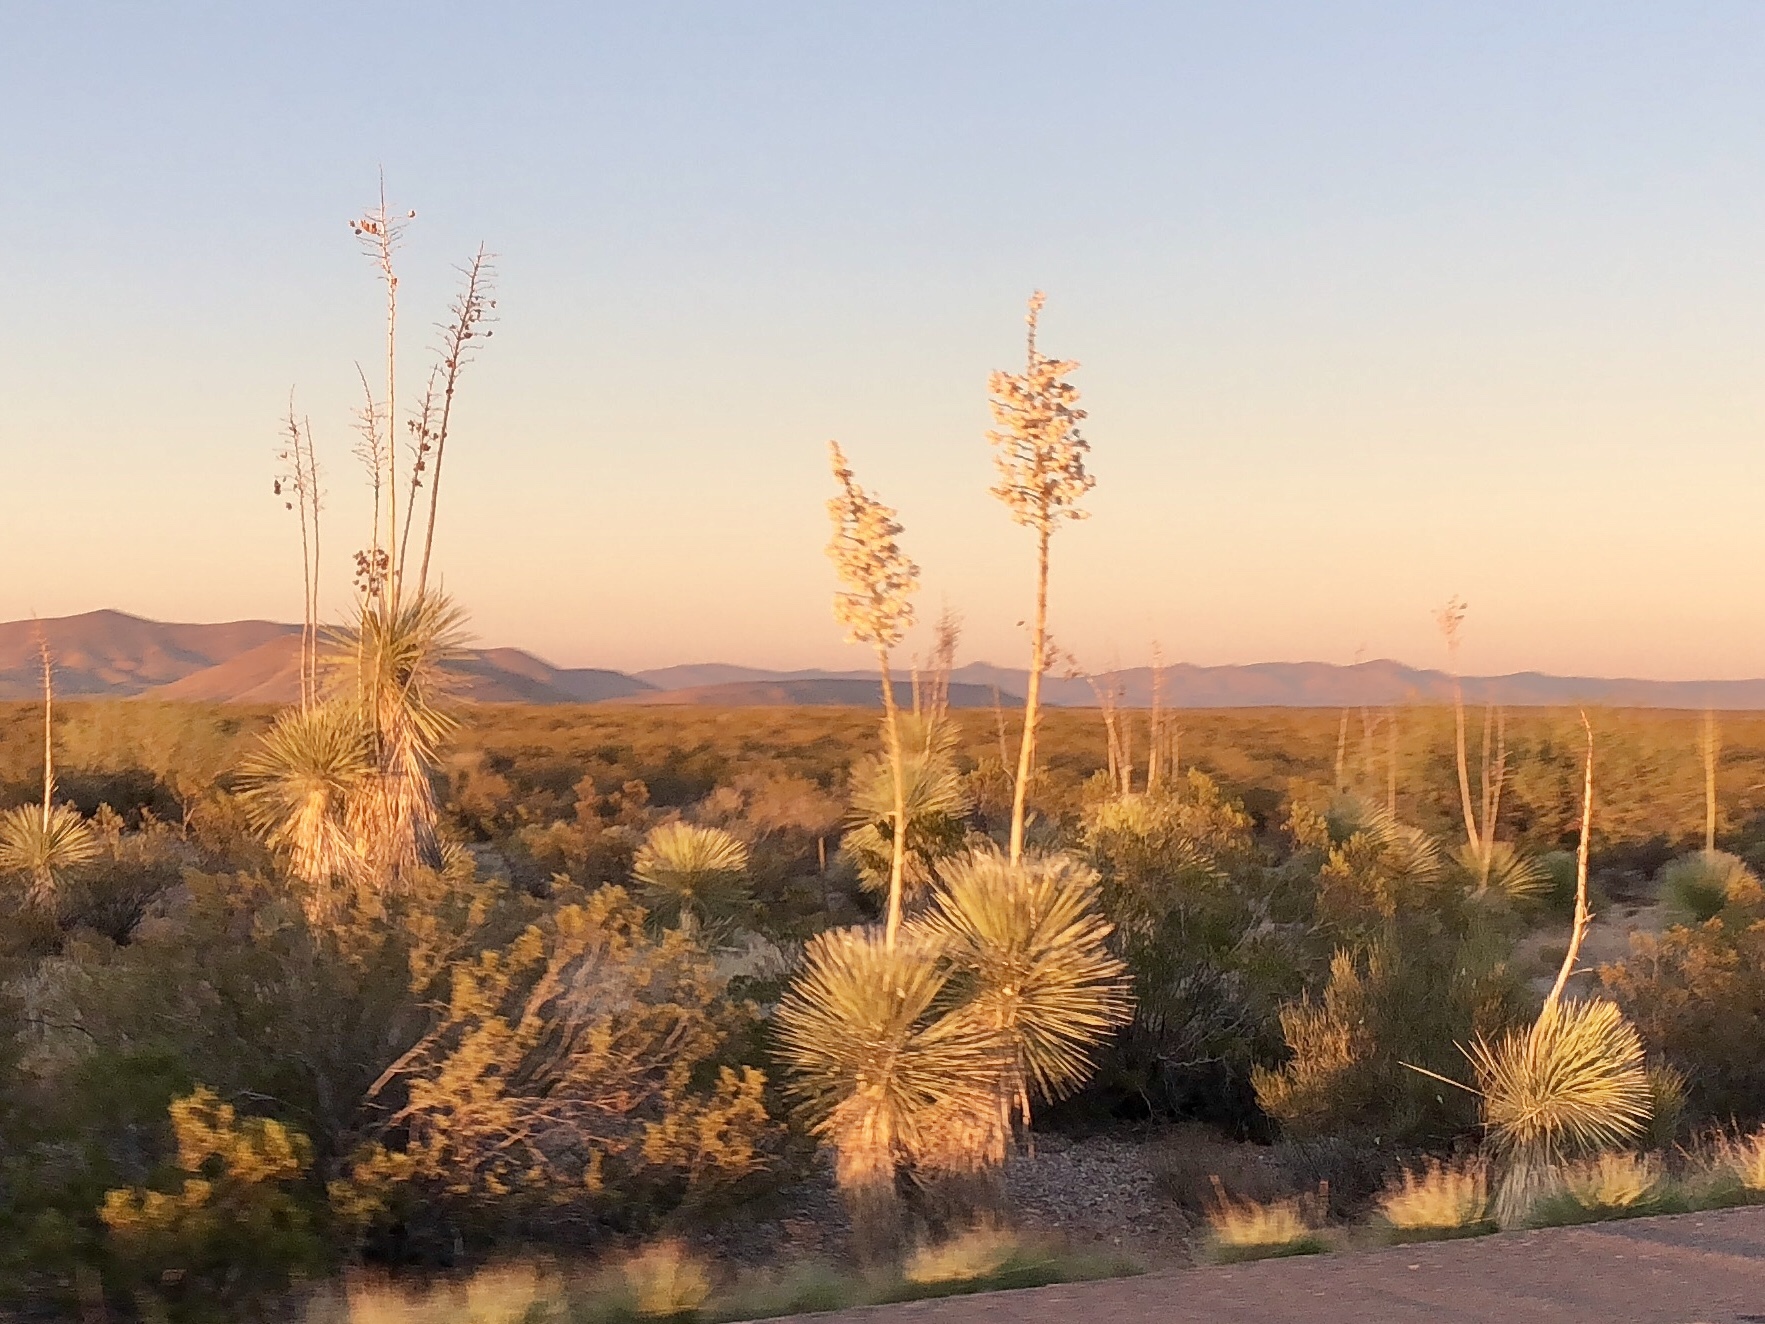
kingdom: Plantae
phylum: Tracheophyta
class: Liliopsida
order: Asparagales
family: Asparagaceae
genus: Yucca
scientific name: Yucca elata
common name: Palmella
